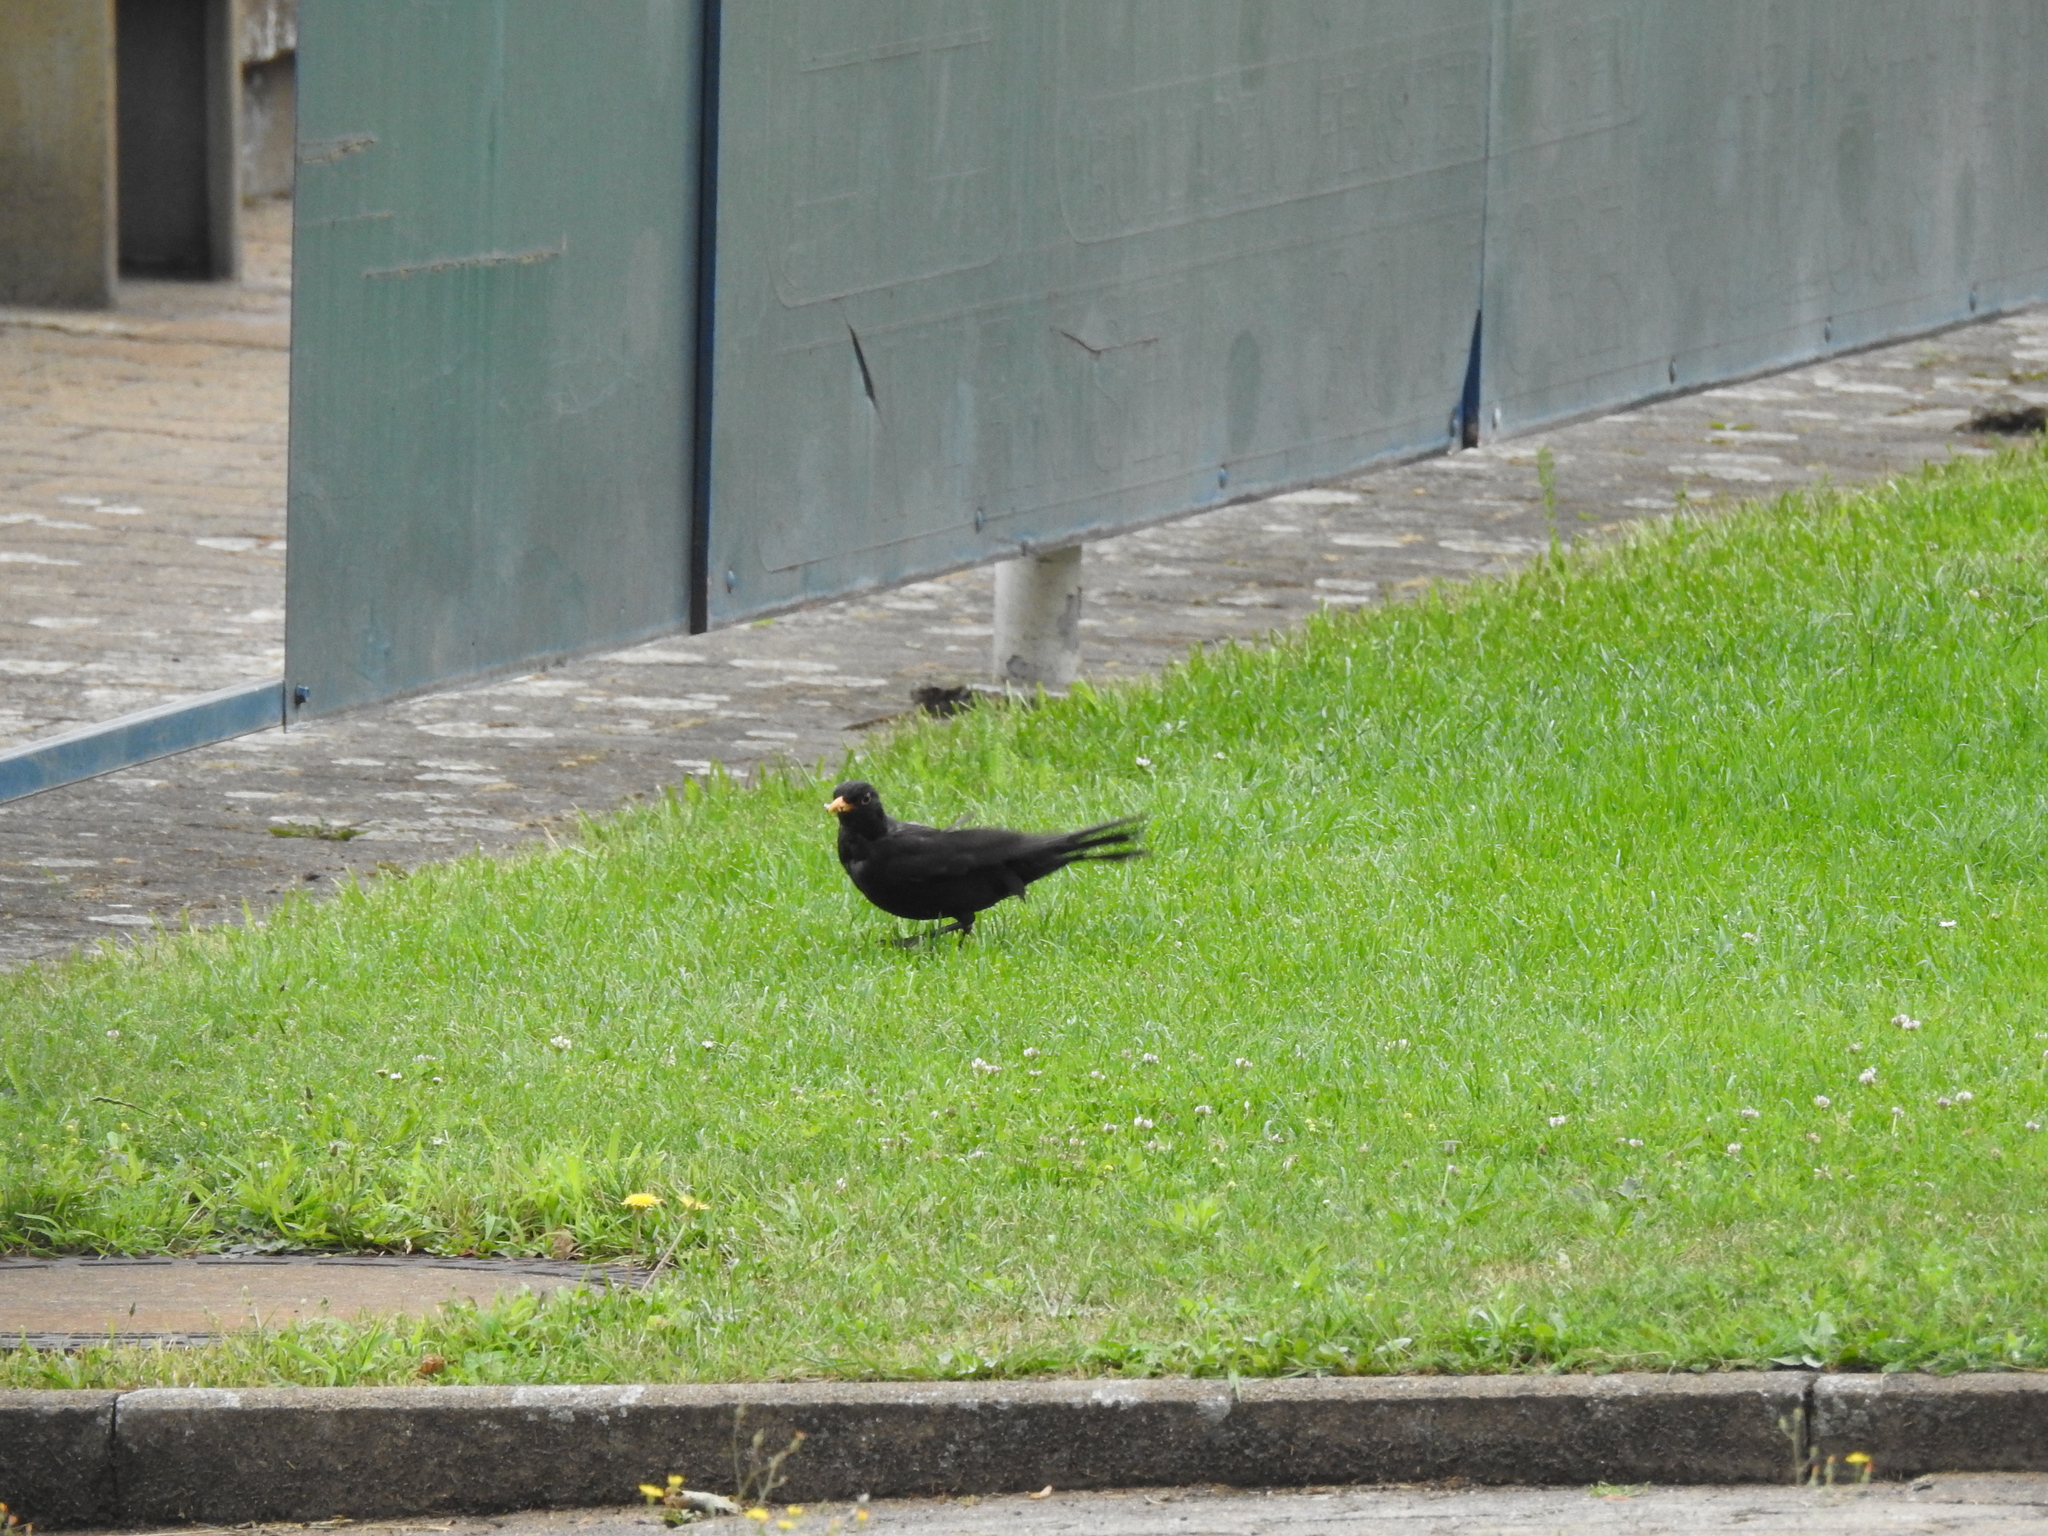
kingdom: Animalia
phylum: Chordata
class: Aves
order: Passeriformes
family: Turdidae
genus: Turdus
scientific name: Turdus merula
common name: Common blackbird
